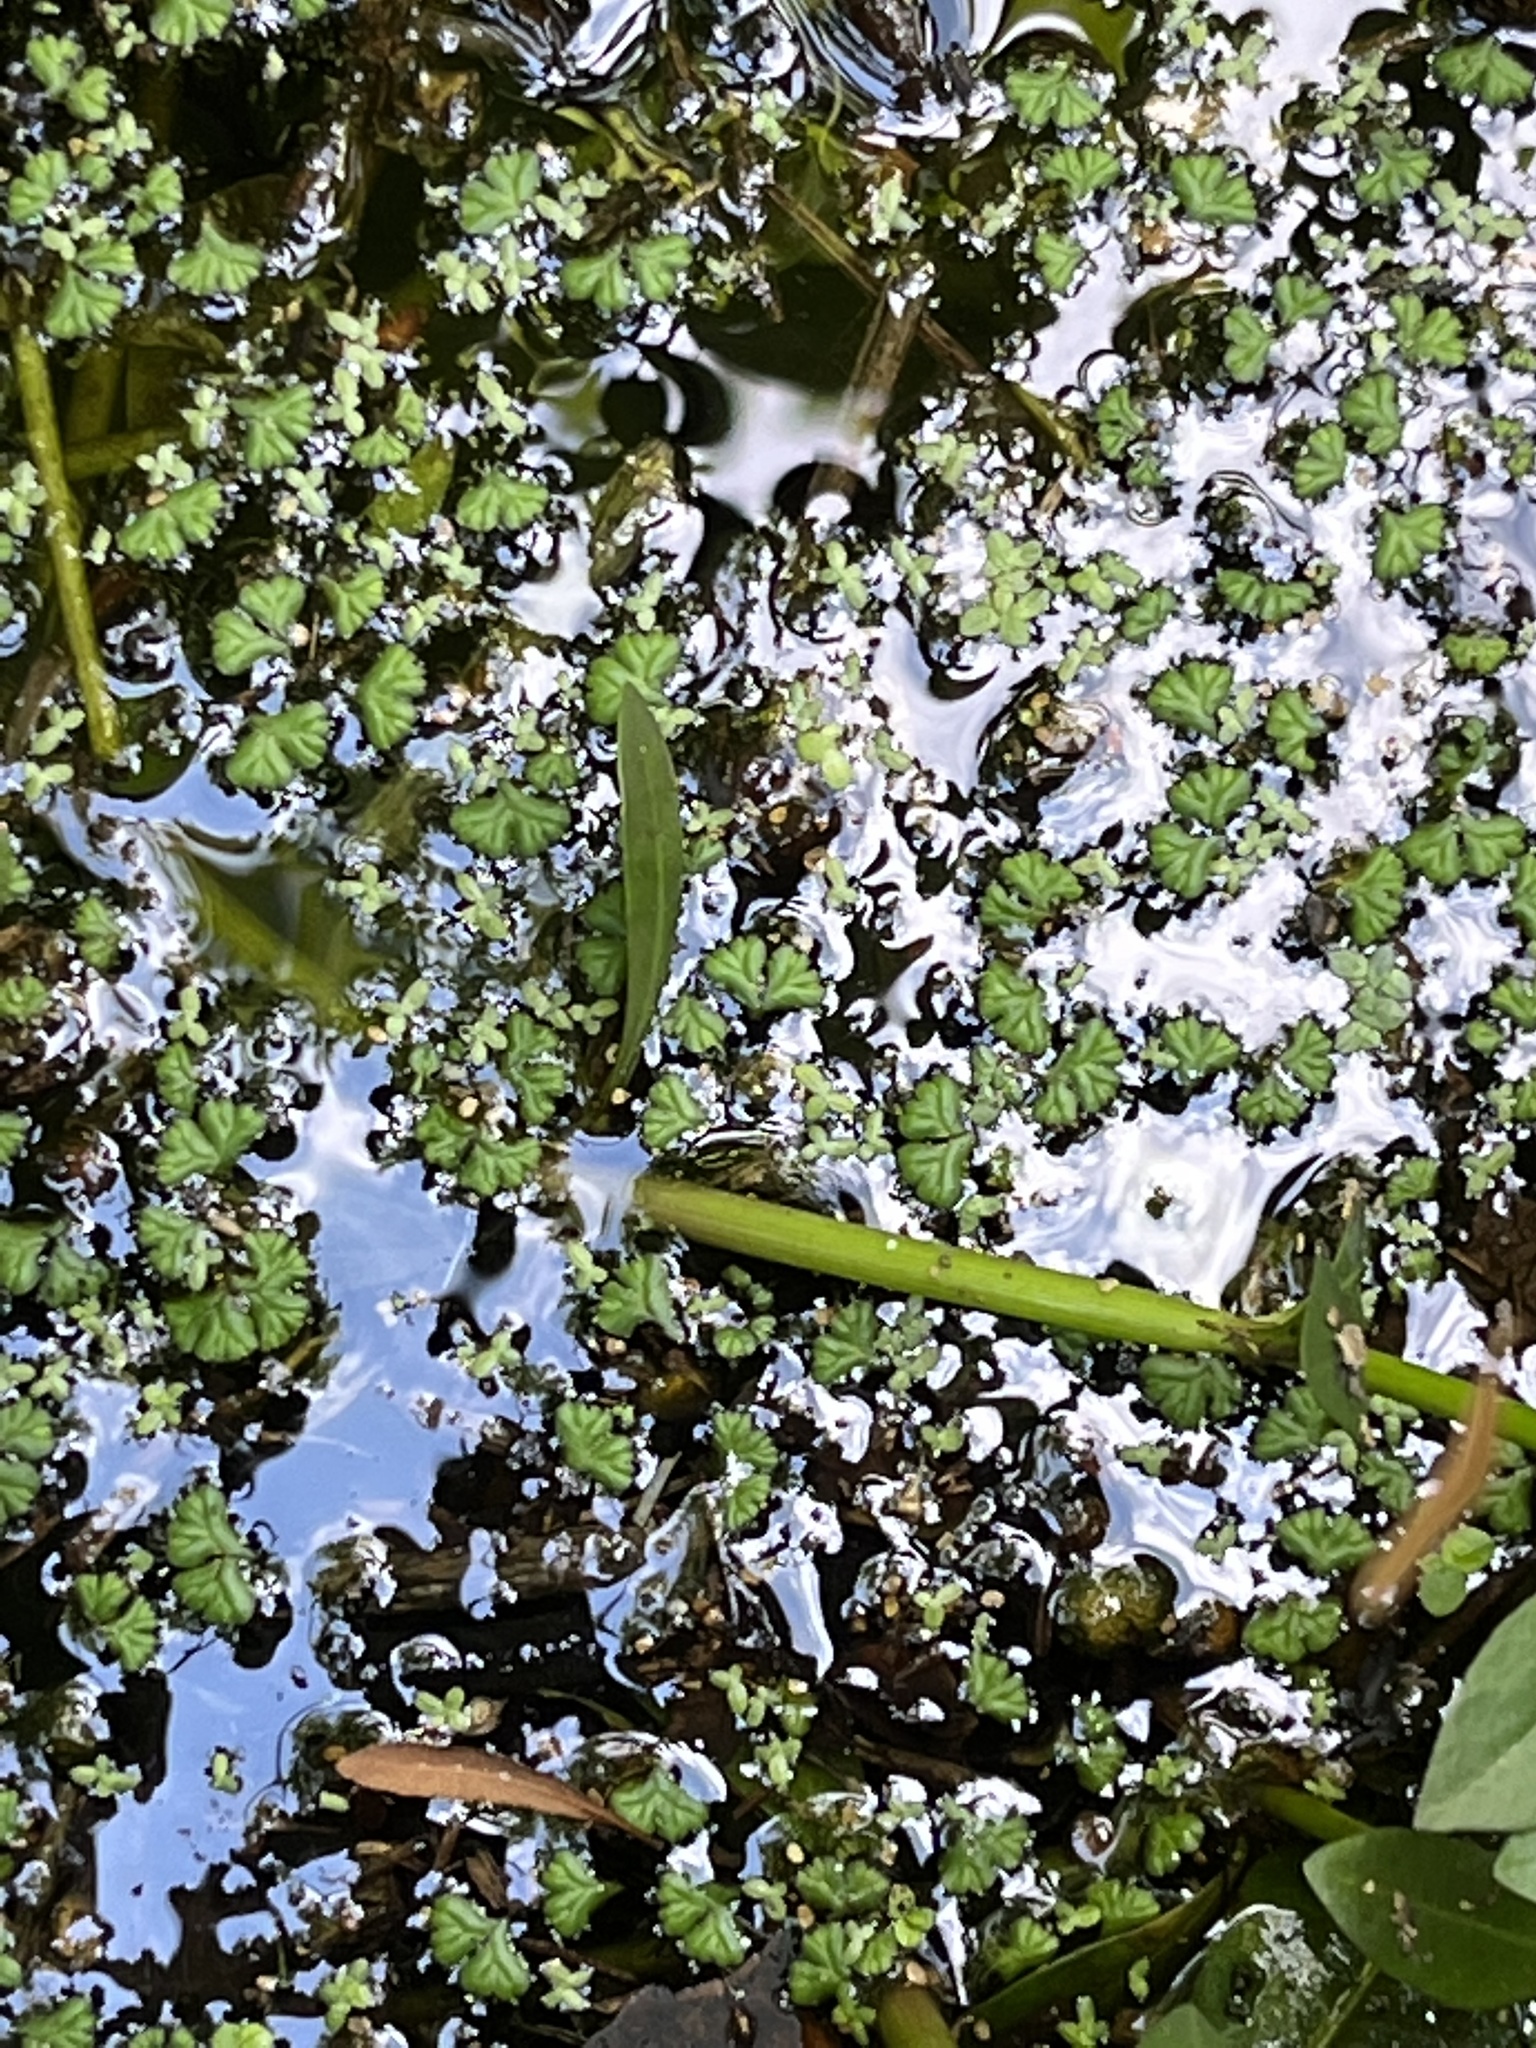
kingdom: Plantae
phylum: Marchantiophyta
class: Marchantiopsida
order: Marchantiales
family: Ricciaceae
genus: Ricciocarpos
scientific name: Ricciocarpos natans
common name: Purple-fringed liverwort
